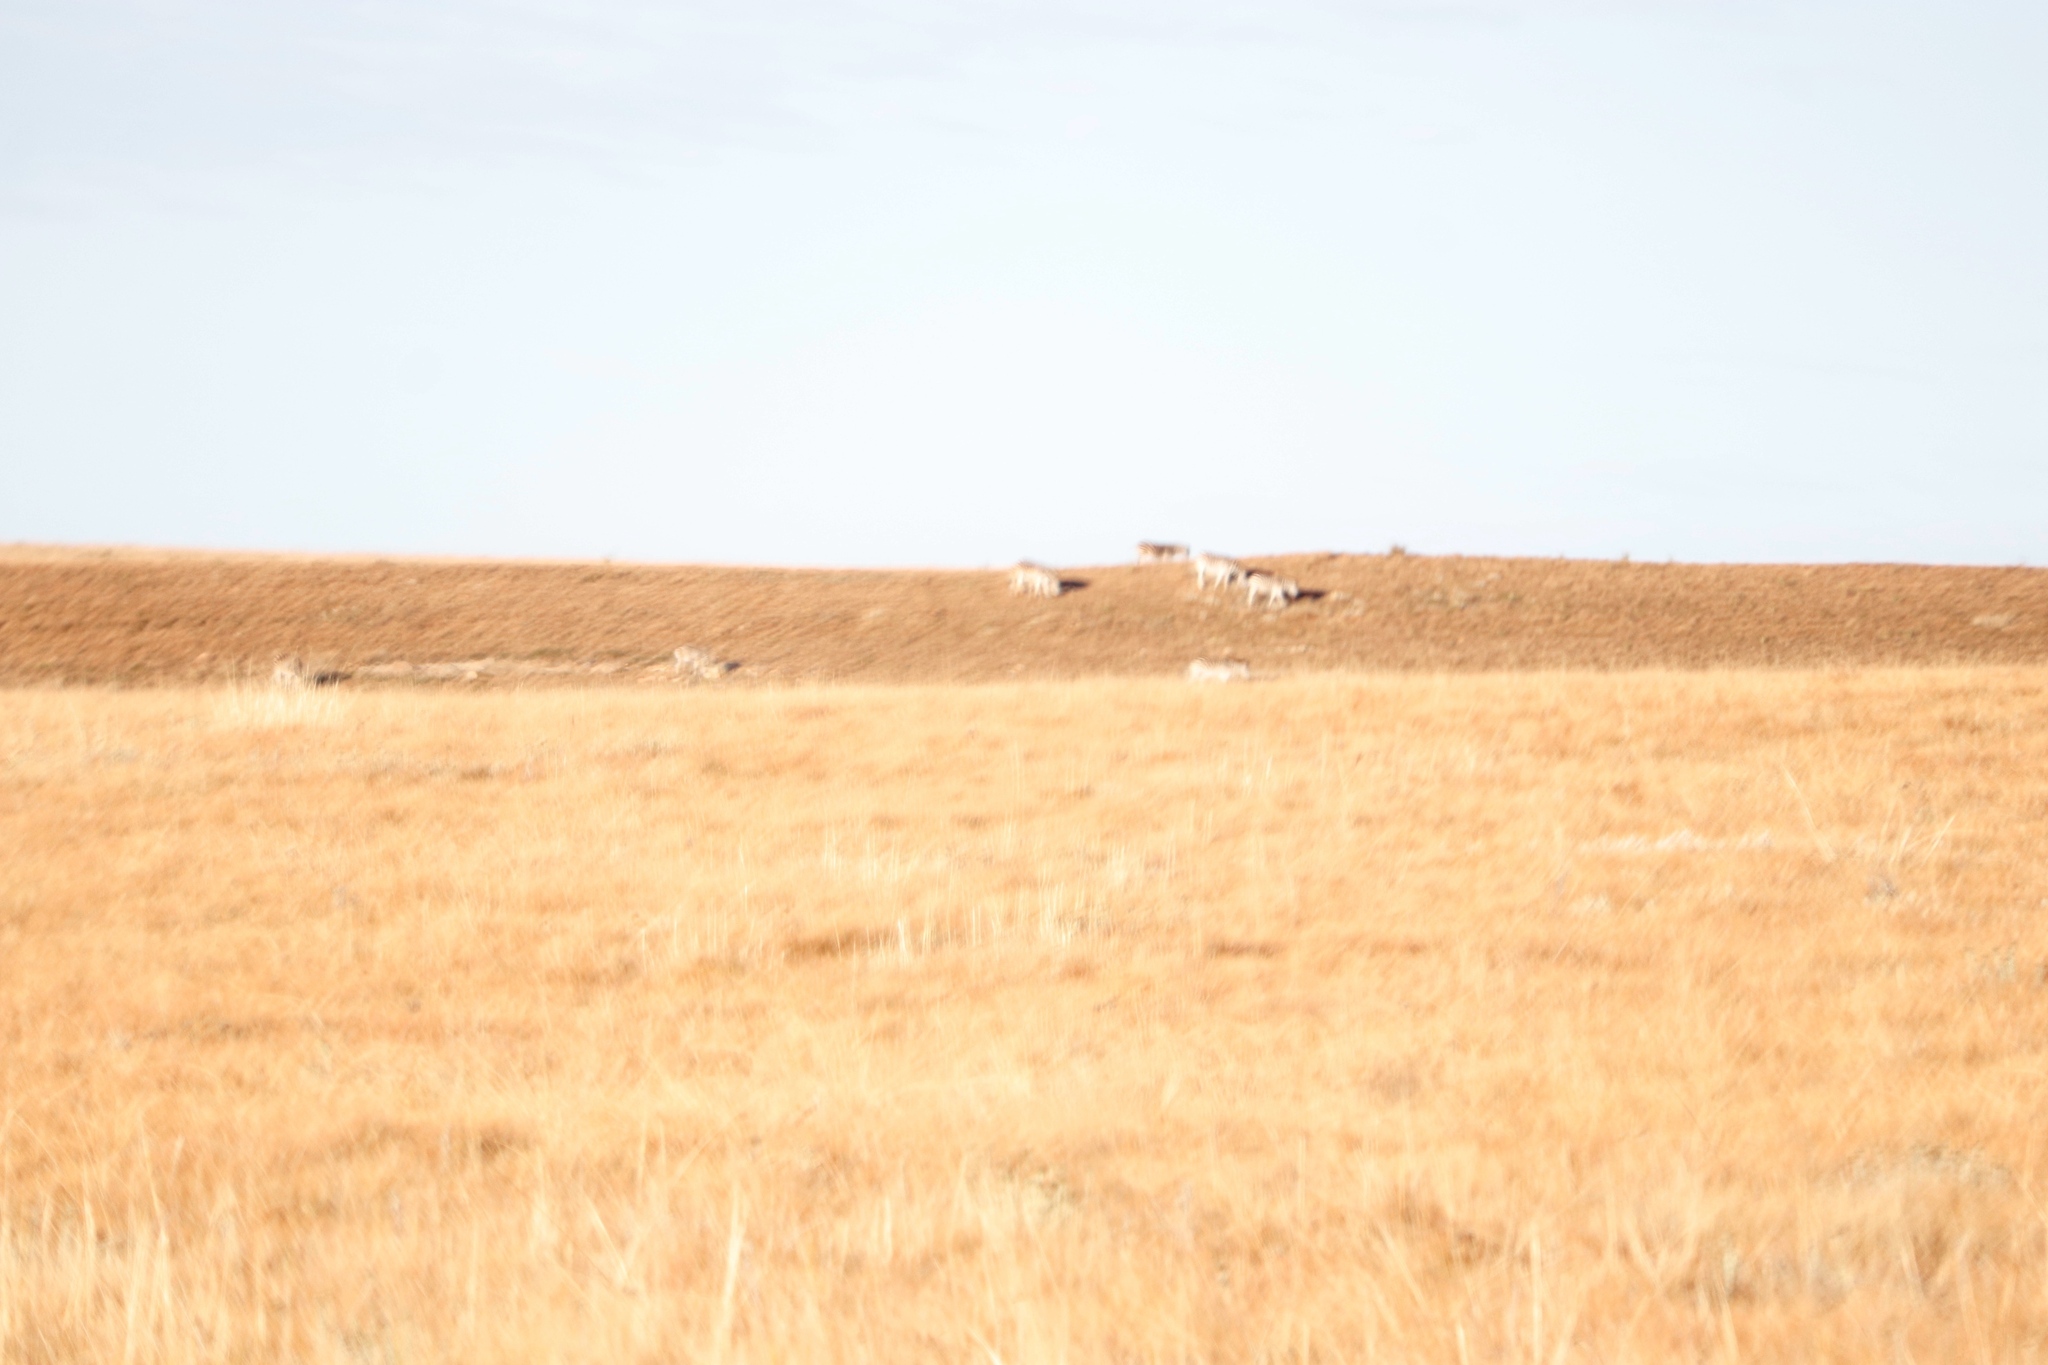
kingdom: Animalia
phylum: Chordata
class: Mammalia
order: Perissodactyla
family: Equidae
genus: Equus
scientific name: Equus quagga
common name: Plains zebra
